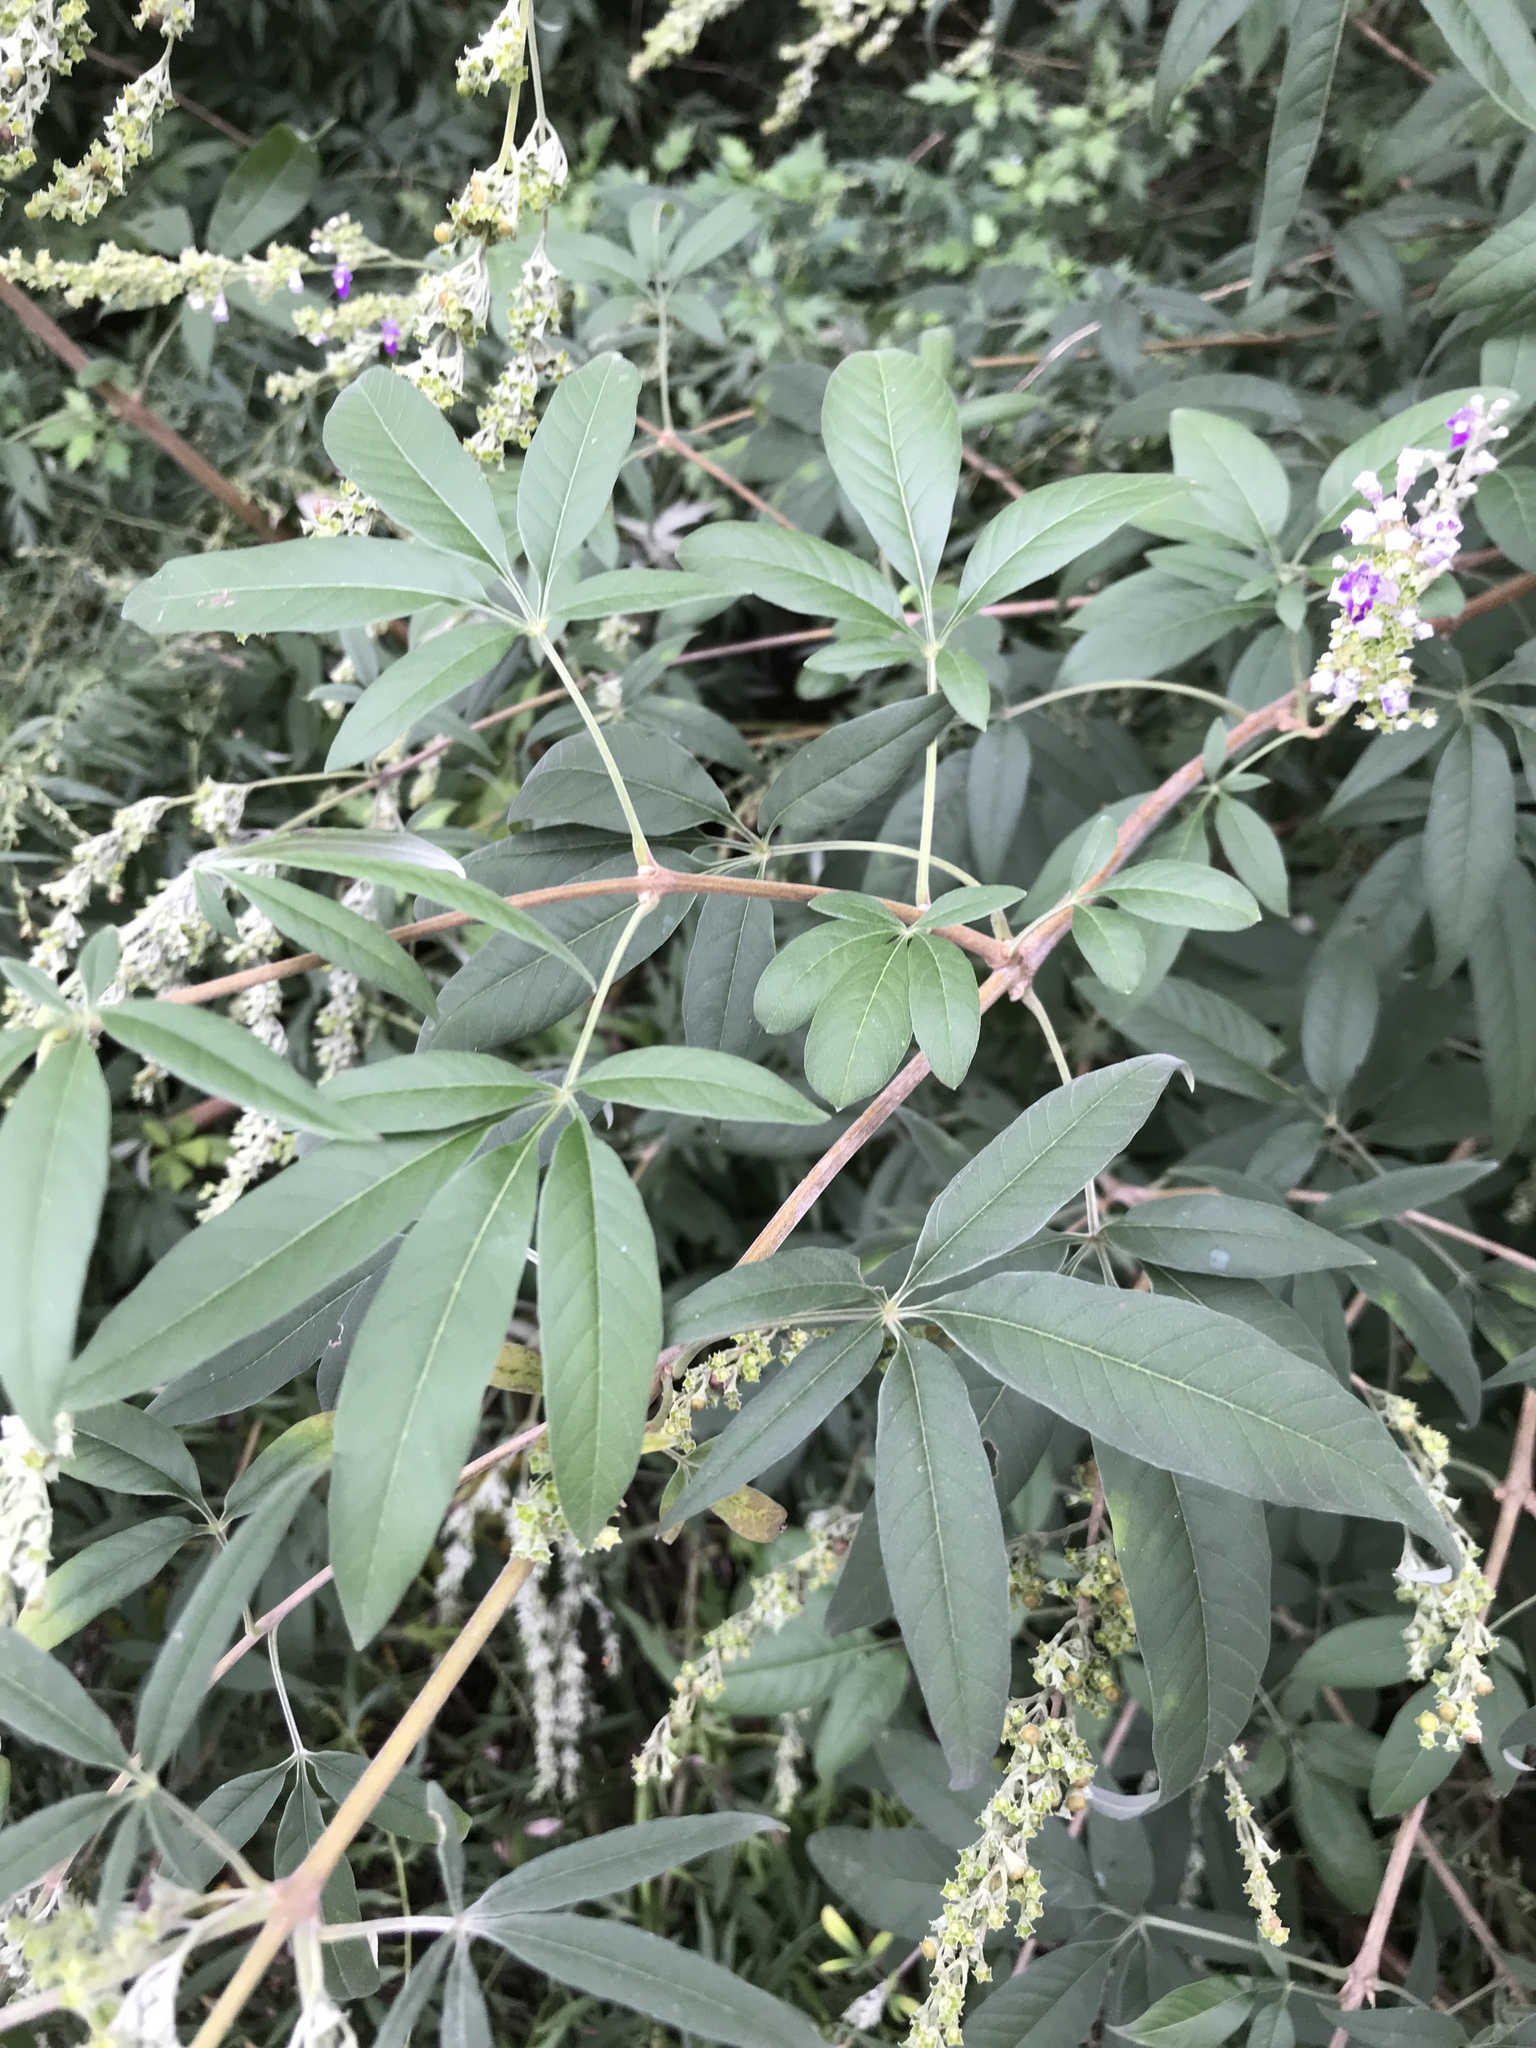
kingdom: Plantae
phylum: Tracheophyta
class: Magnoliopsida
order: Lamiales
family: Lamiaceae
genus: Vitex
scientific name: Vitex negundo
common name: Chinese chastetree
